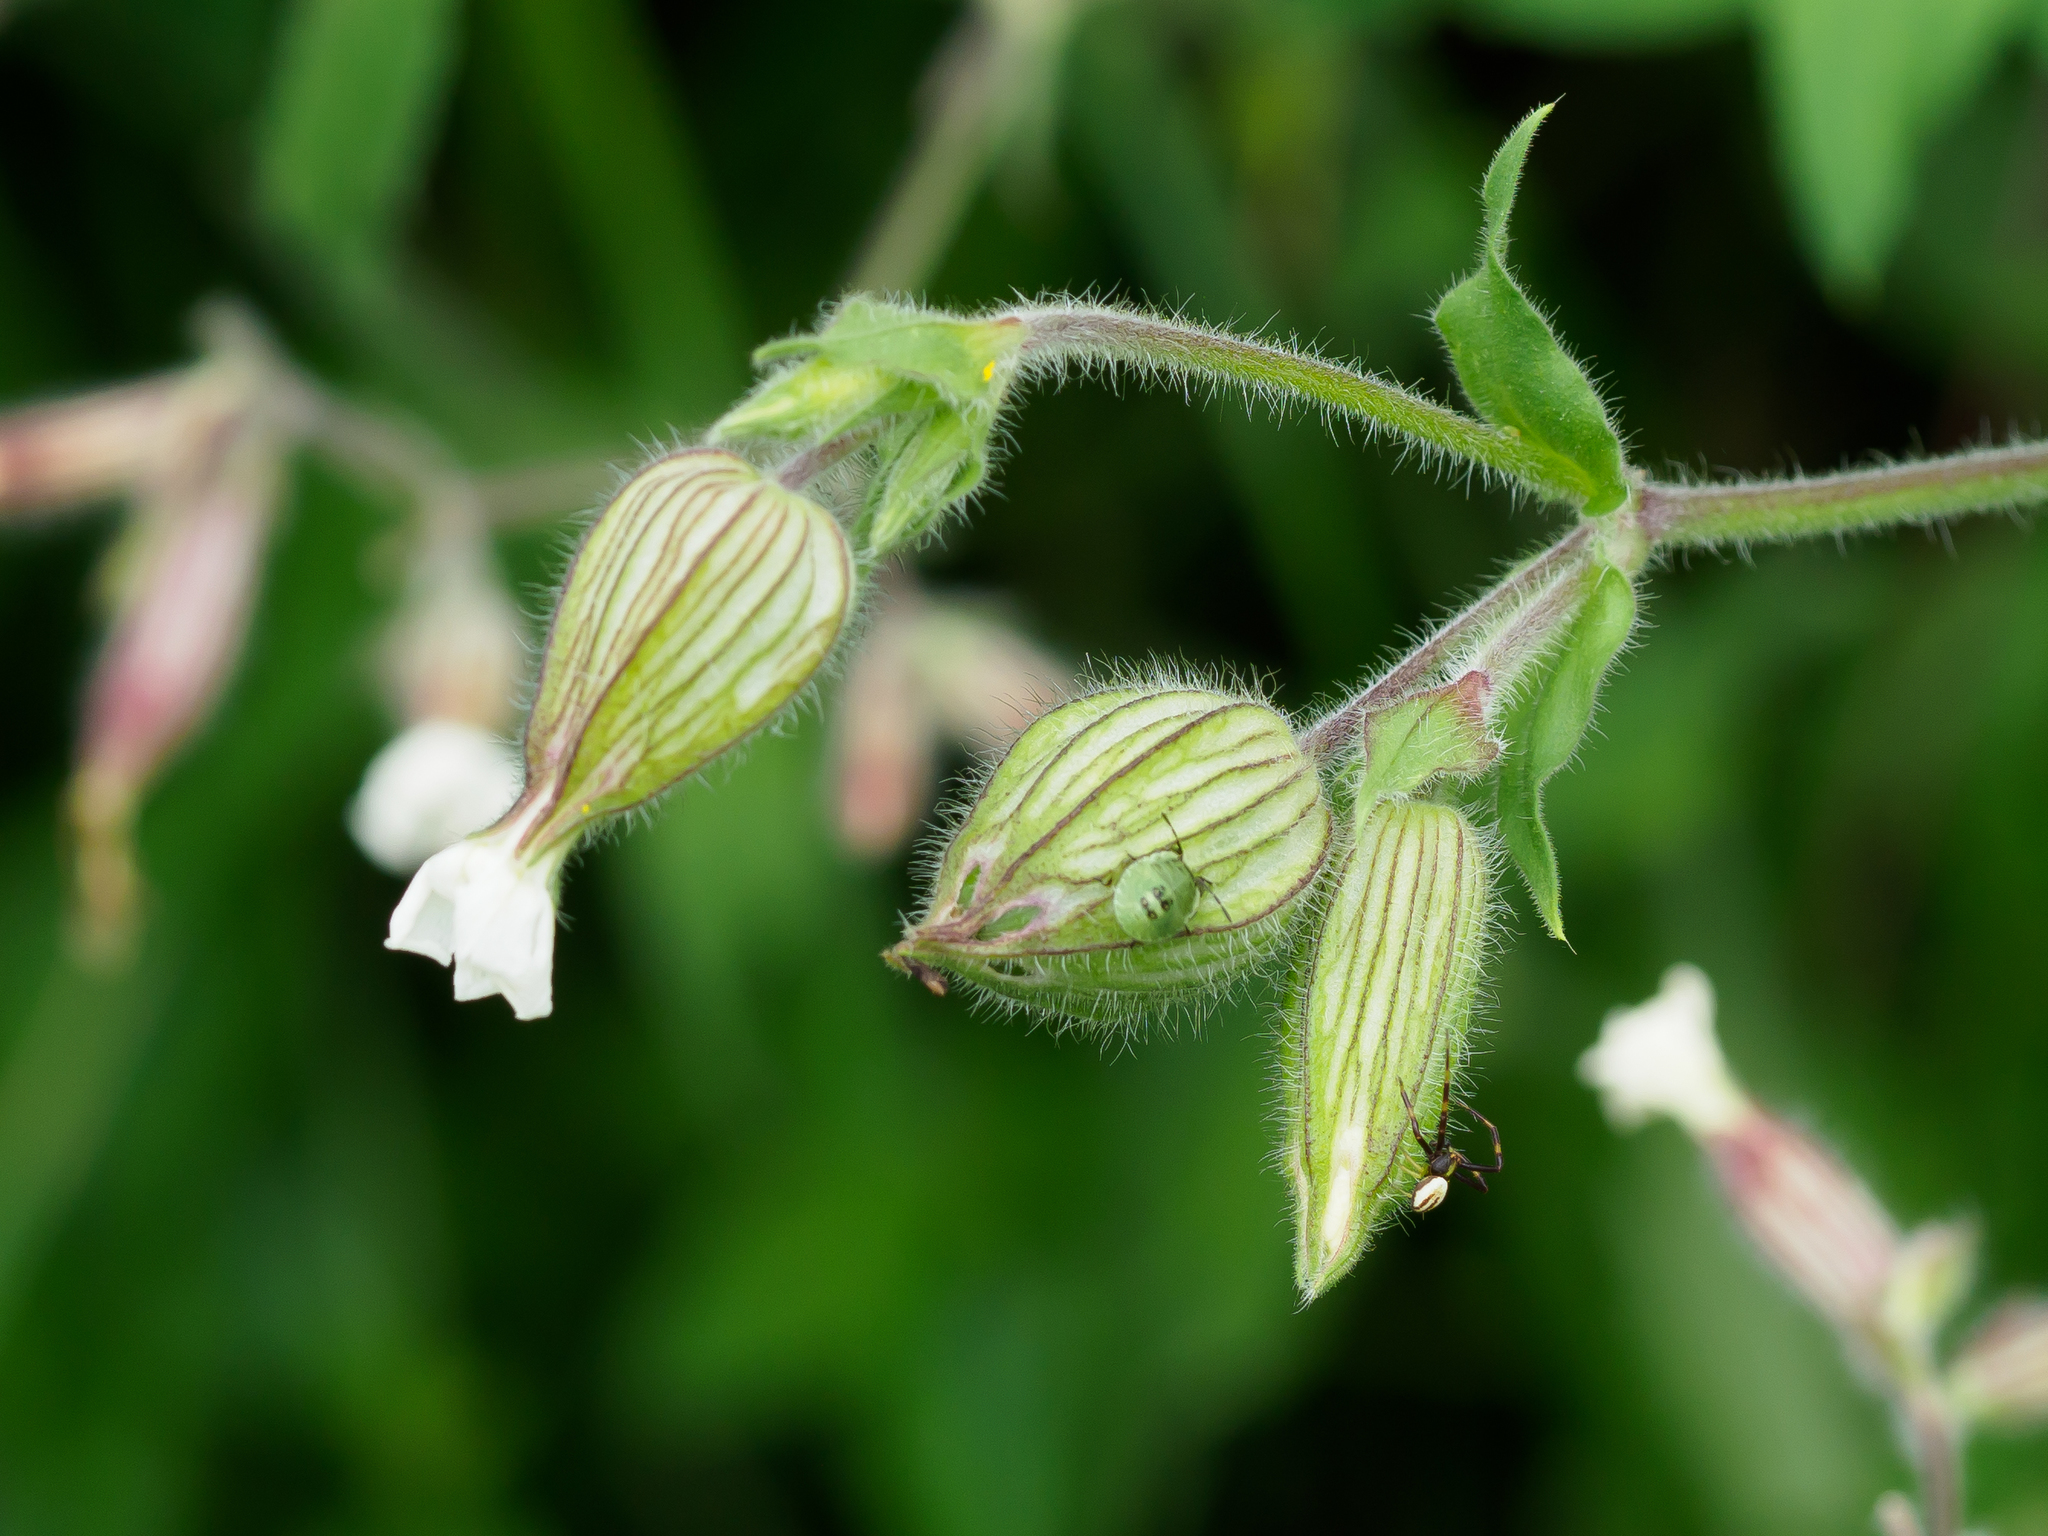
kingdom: Plantae
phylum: Tracheophyta
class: Magnoliopsida
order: Caryophyllales
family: Caryophyllaceae
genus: Silene
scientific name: Silene latifolia
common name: White campion
